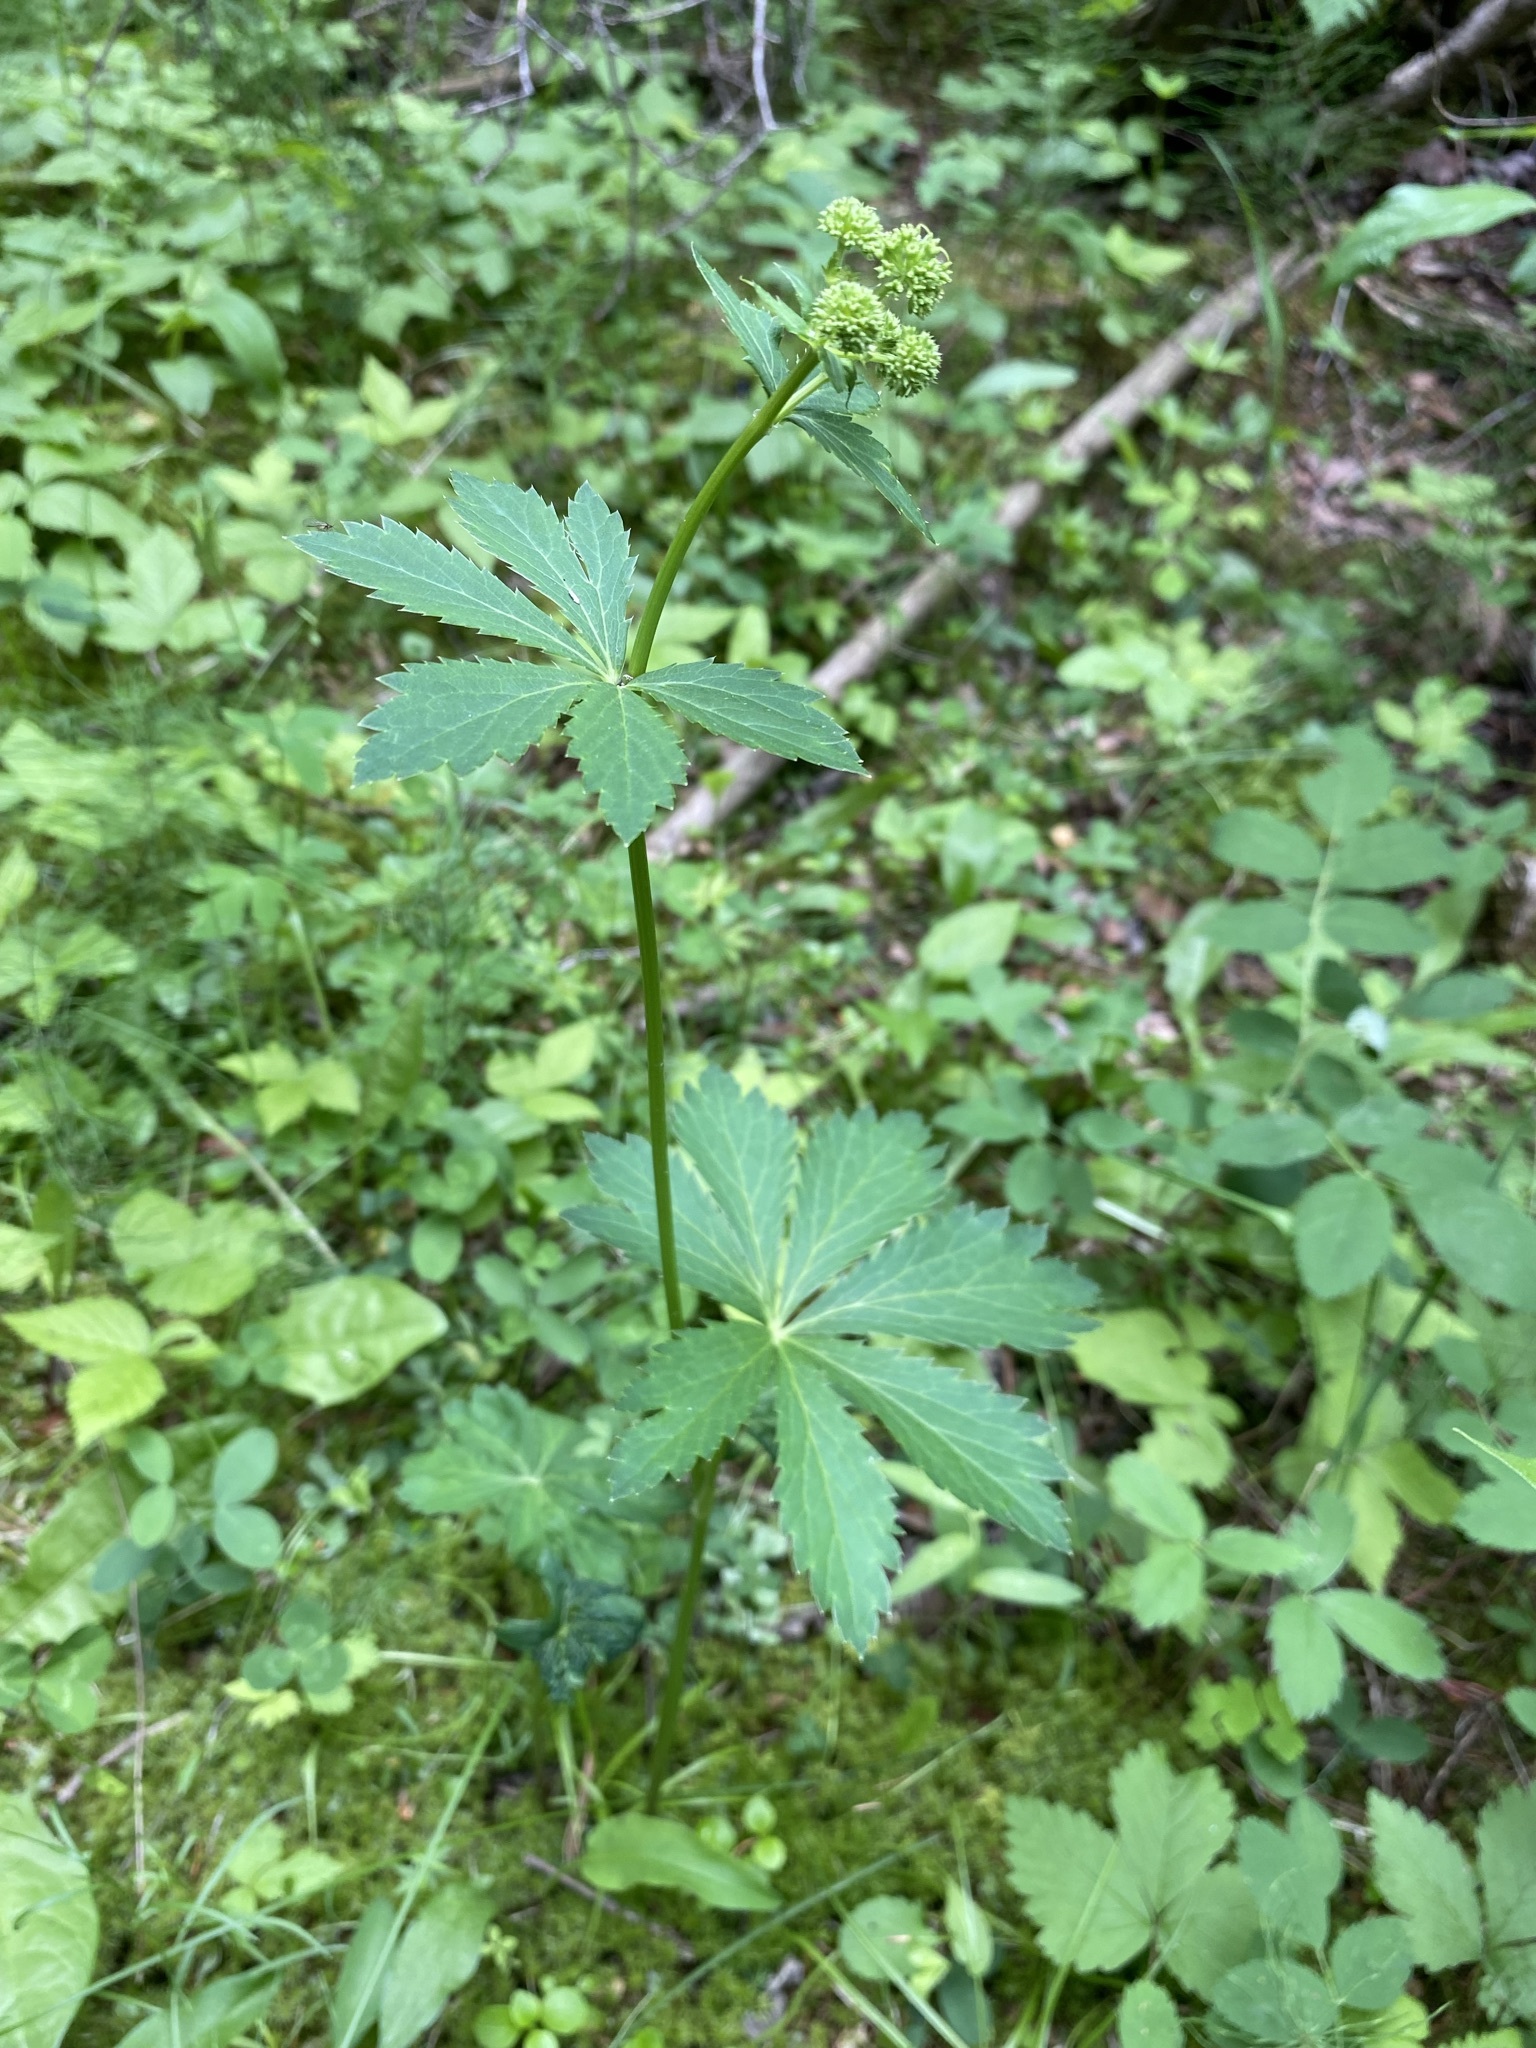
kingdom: Plantae
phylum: Tracheophyta
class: Magnoliopsida
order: Apiales
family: Apiaceae
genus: Sanicula
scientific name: Sanicula marilandica
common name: Black snakeroot
